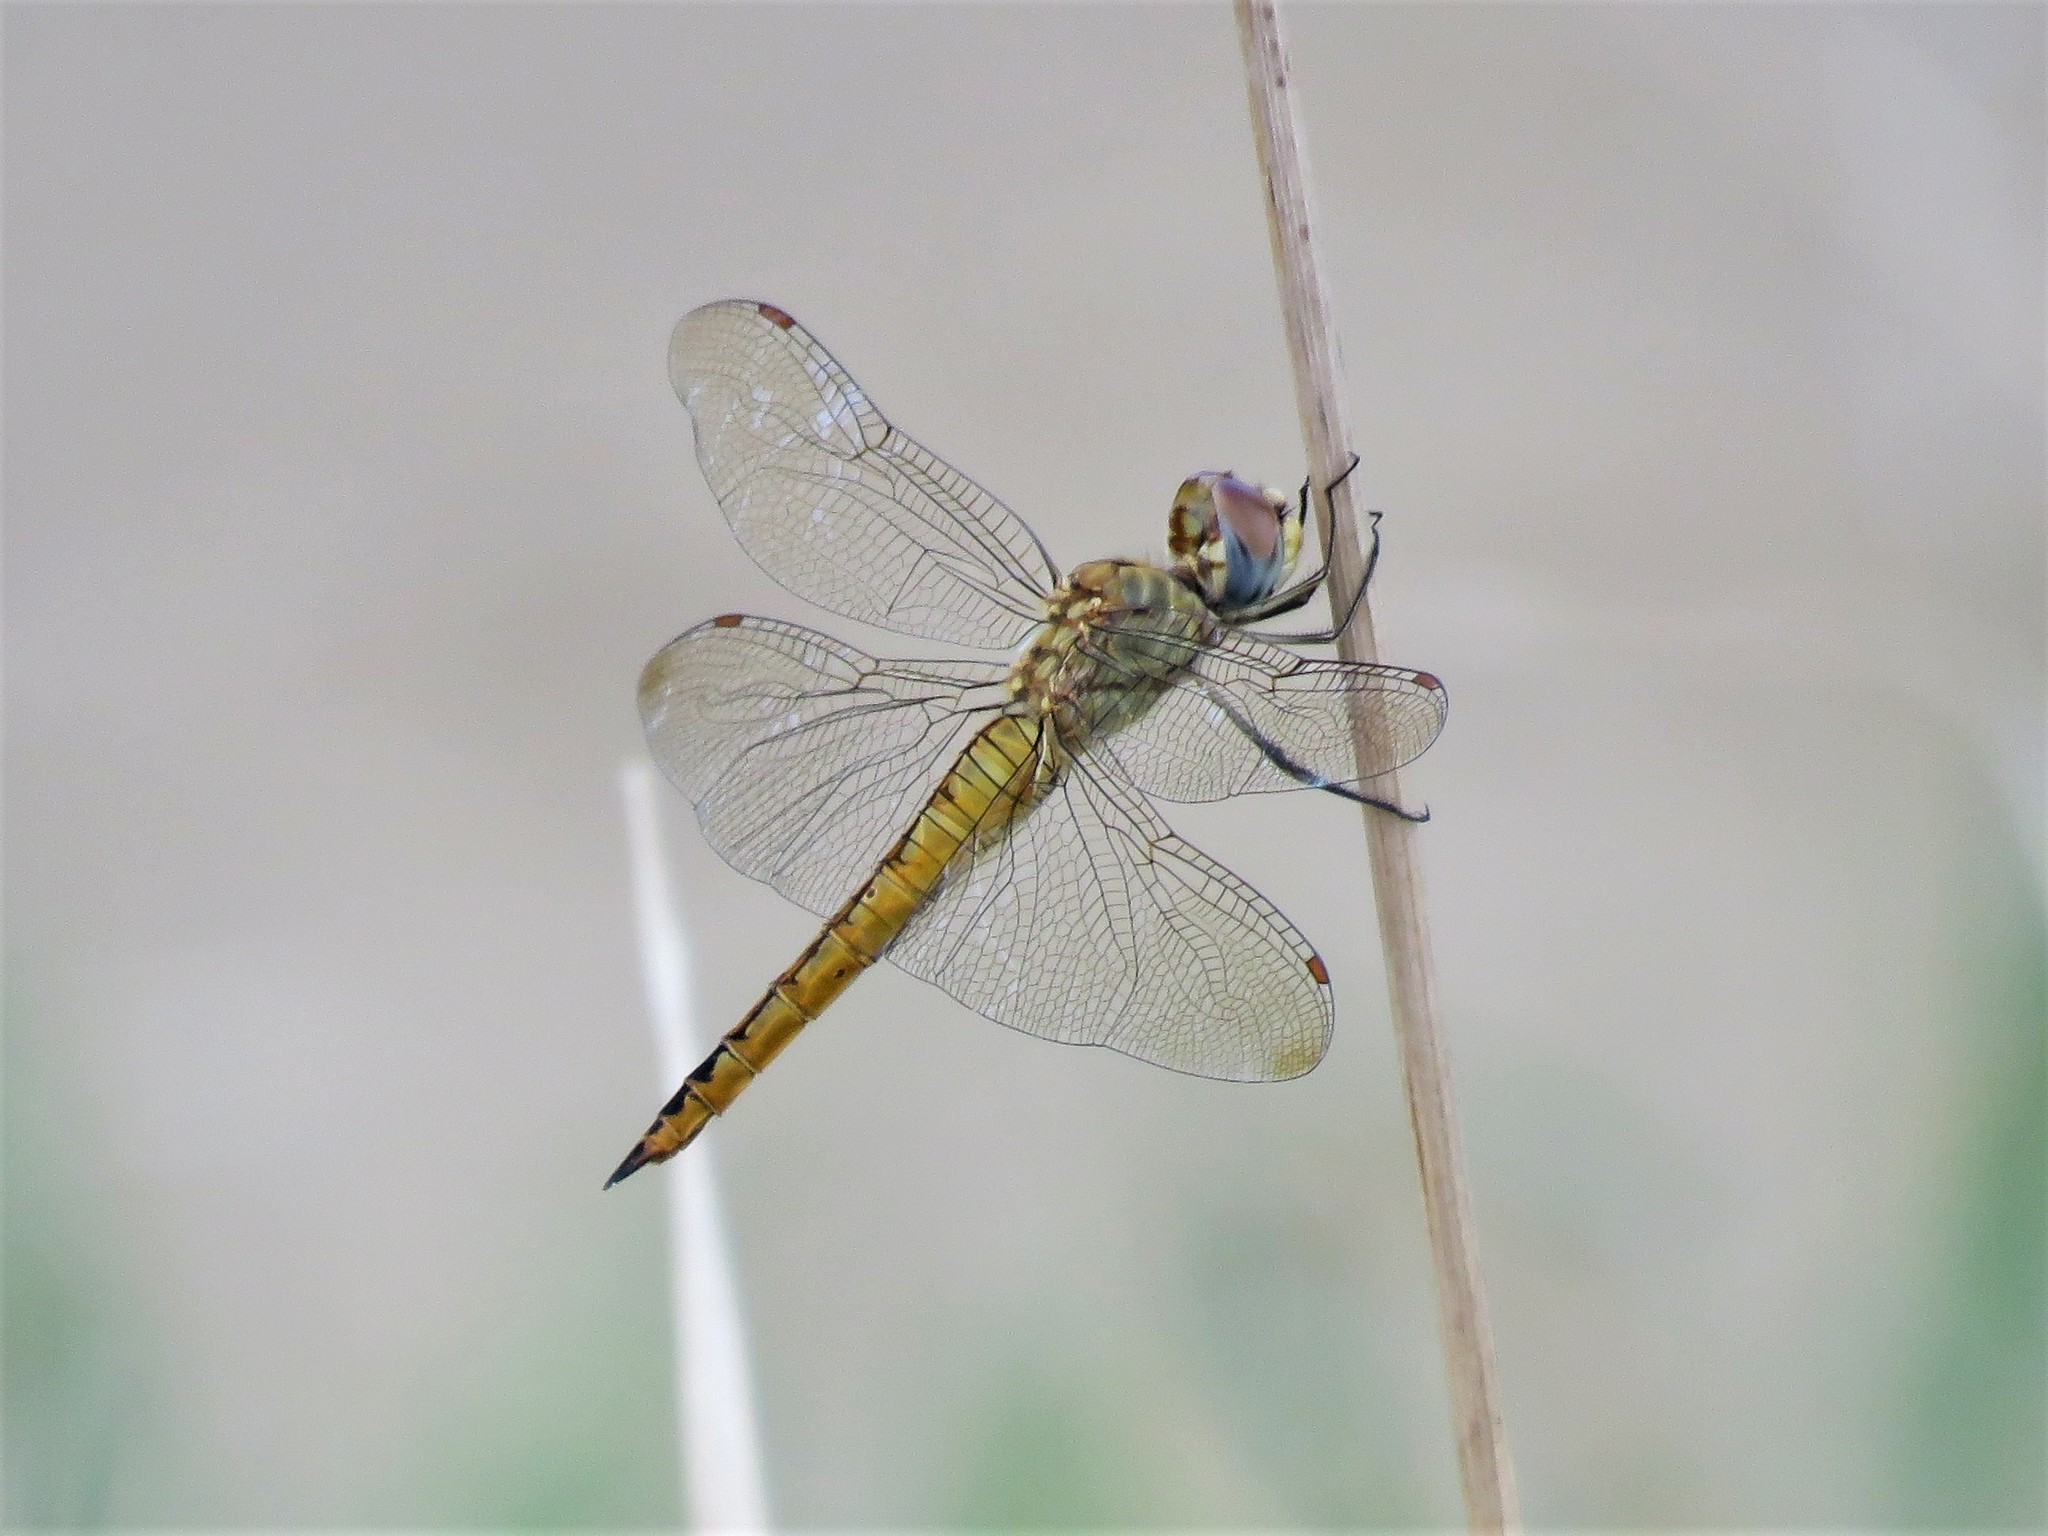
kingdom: Animalia
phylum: Arthropoda
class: Insecta
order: Odonata
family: Libellulidae
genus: Pantala
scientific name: Pantala flavescens
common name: Wandering glider
